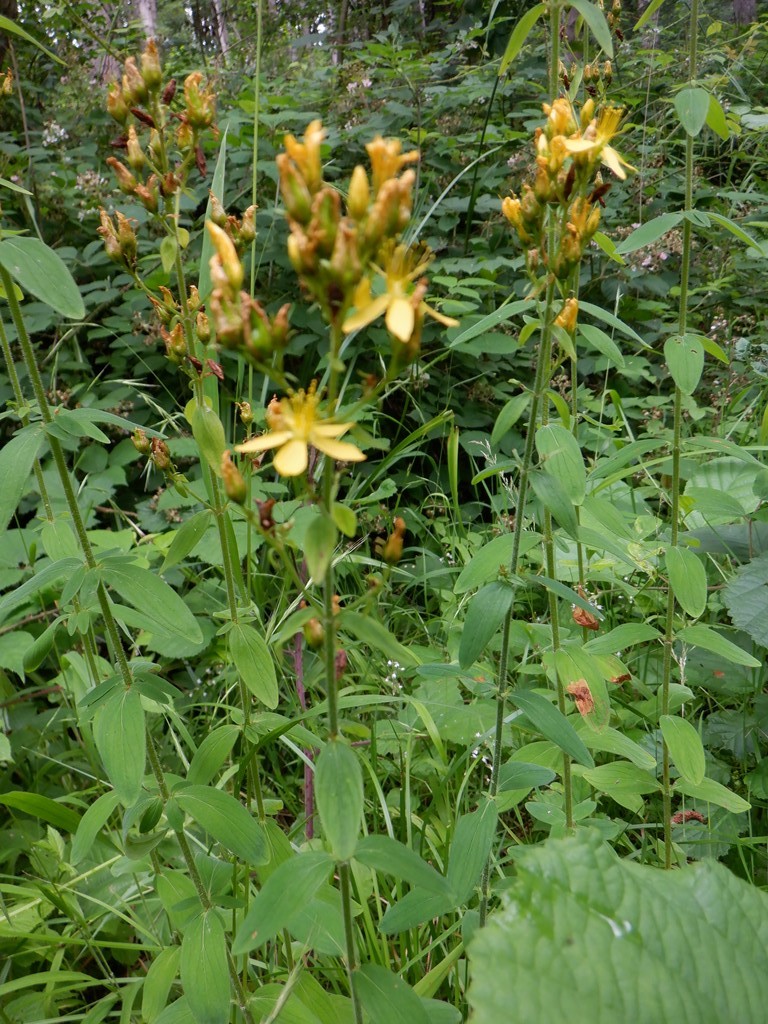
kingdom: Plantae
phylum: Tracheophyta
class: Magnoliopsida
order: Malpighiales
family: Hypericaceae
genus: Hypericum
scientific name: Hypericum hirsutum
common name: Hairy st. john's-wort
